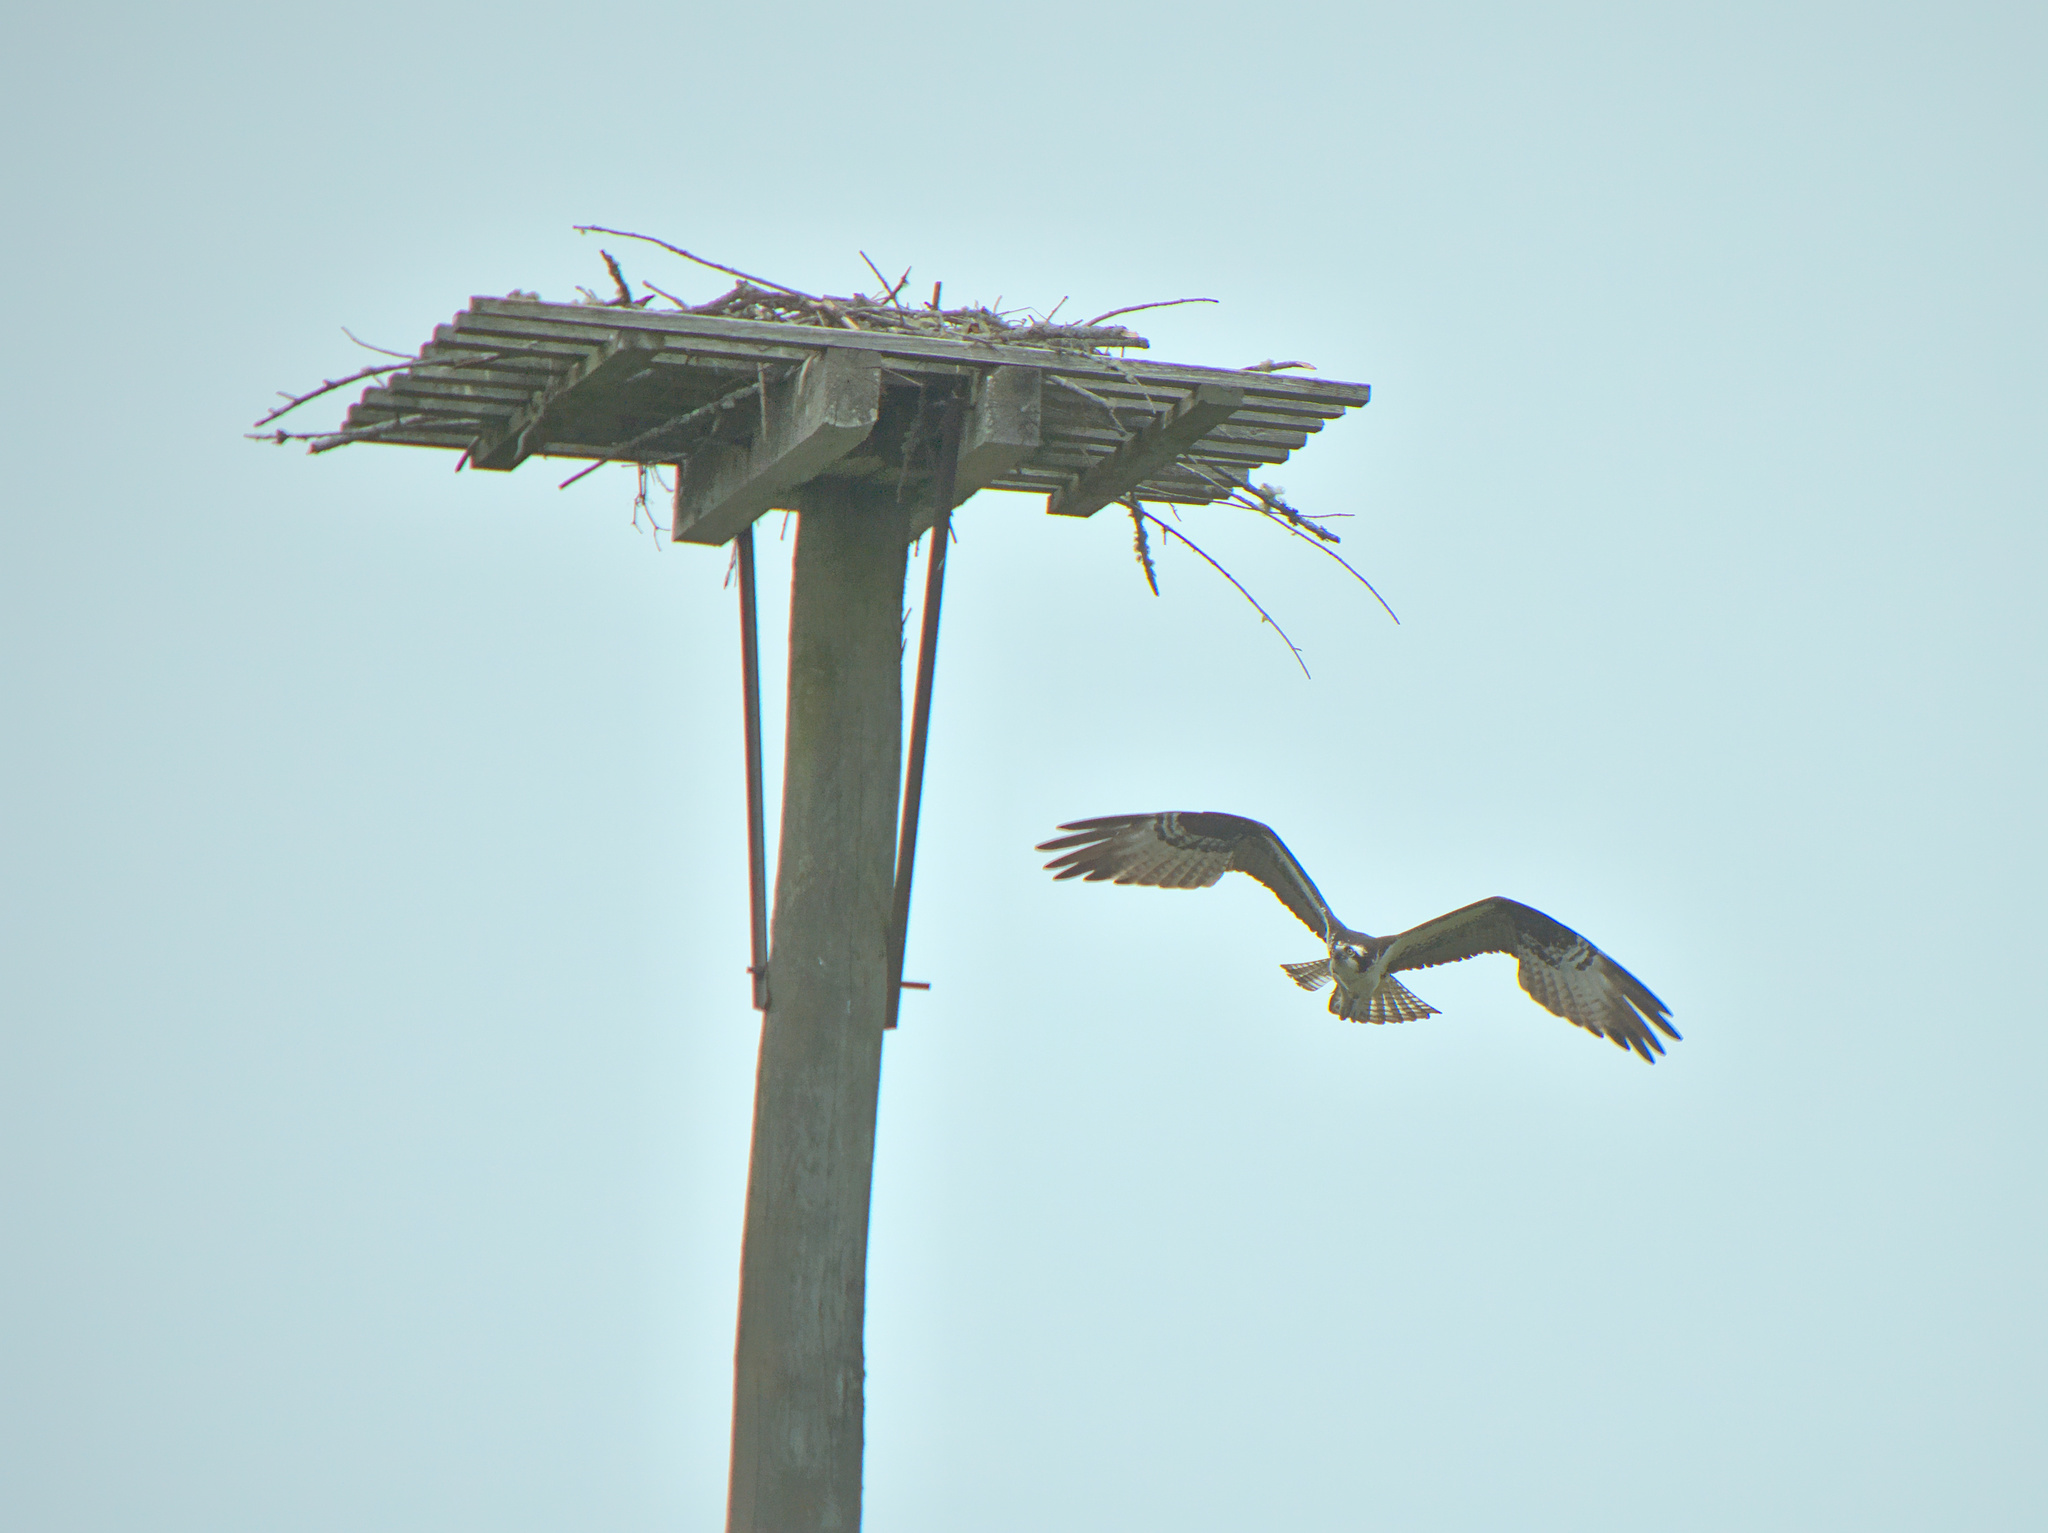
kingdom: Animalia
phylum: Chordata
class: Aves
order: Accipitriformes
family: Pandionidae
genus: Pandion
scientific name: Pandion haliaetus
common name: Osprey
